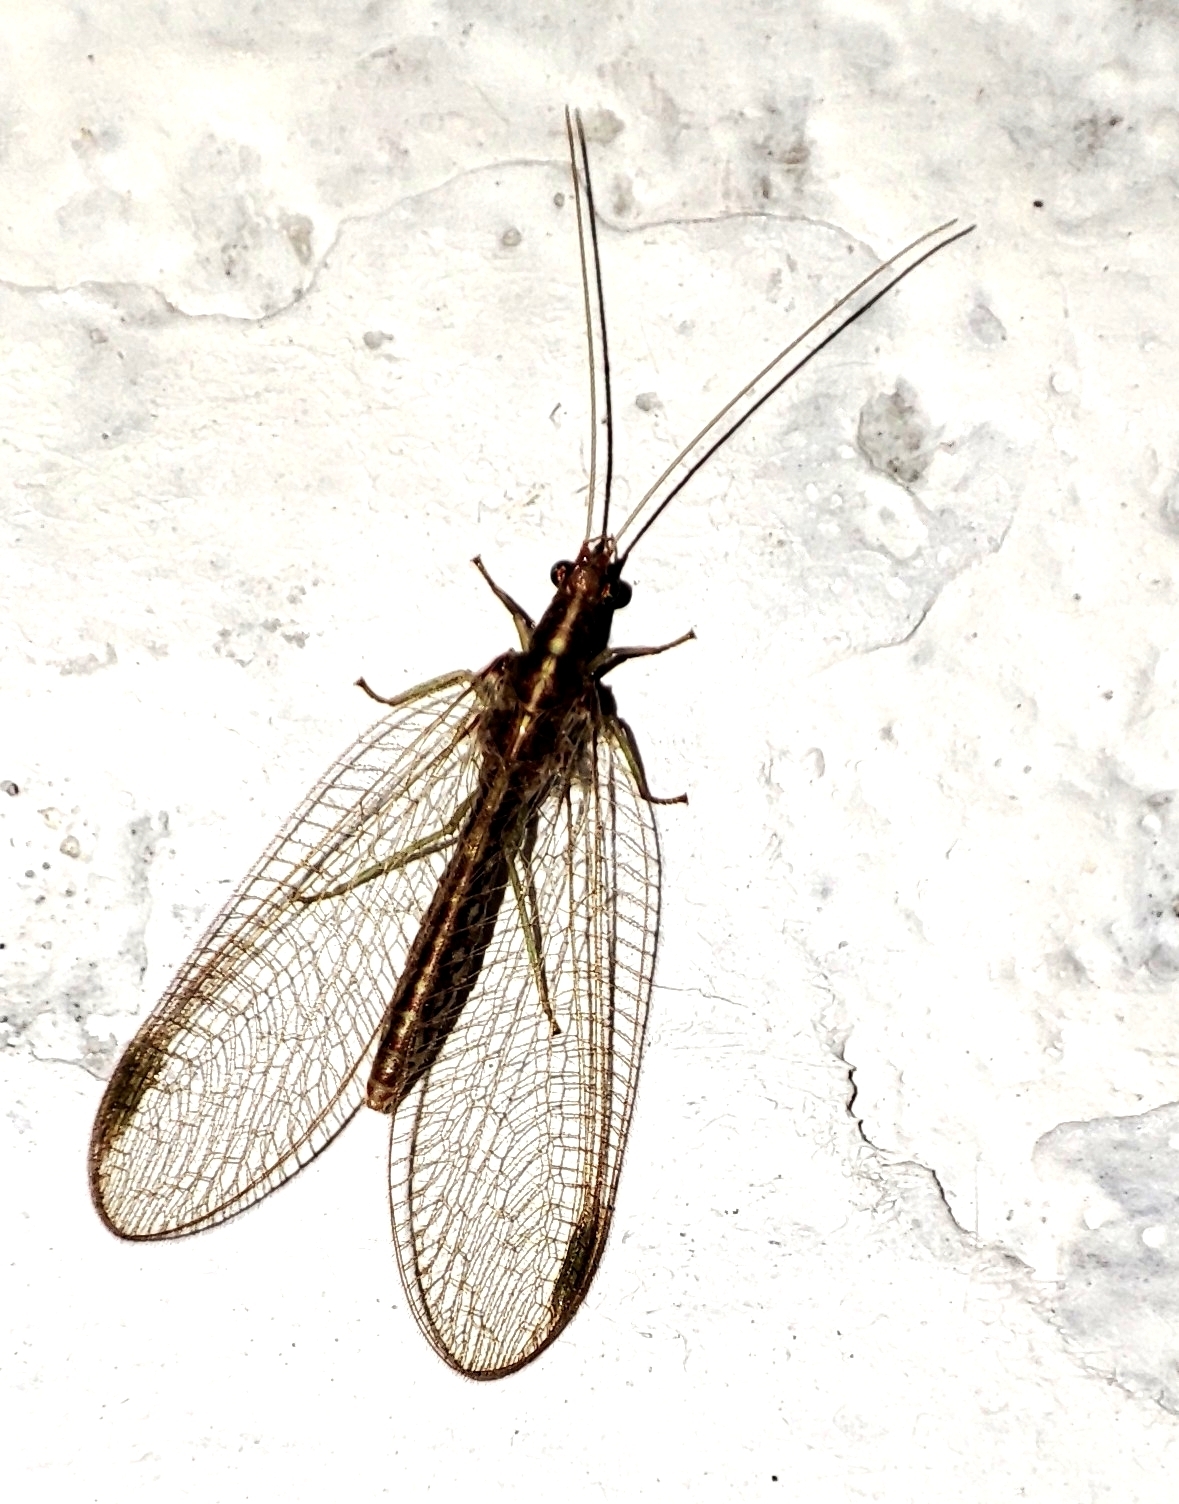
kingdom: Animalia
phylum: Arthropoda
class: Insecta
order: Neuroptera
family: Chrysopidae
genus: Chrysoperla
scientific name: Chrysoperla carnea
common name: Common green lacewing
